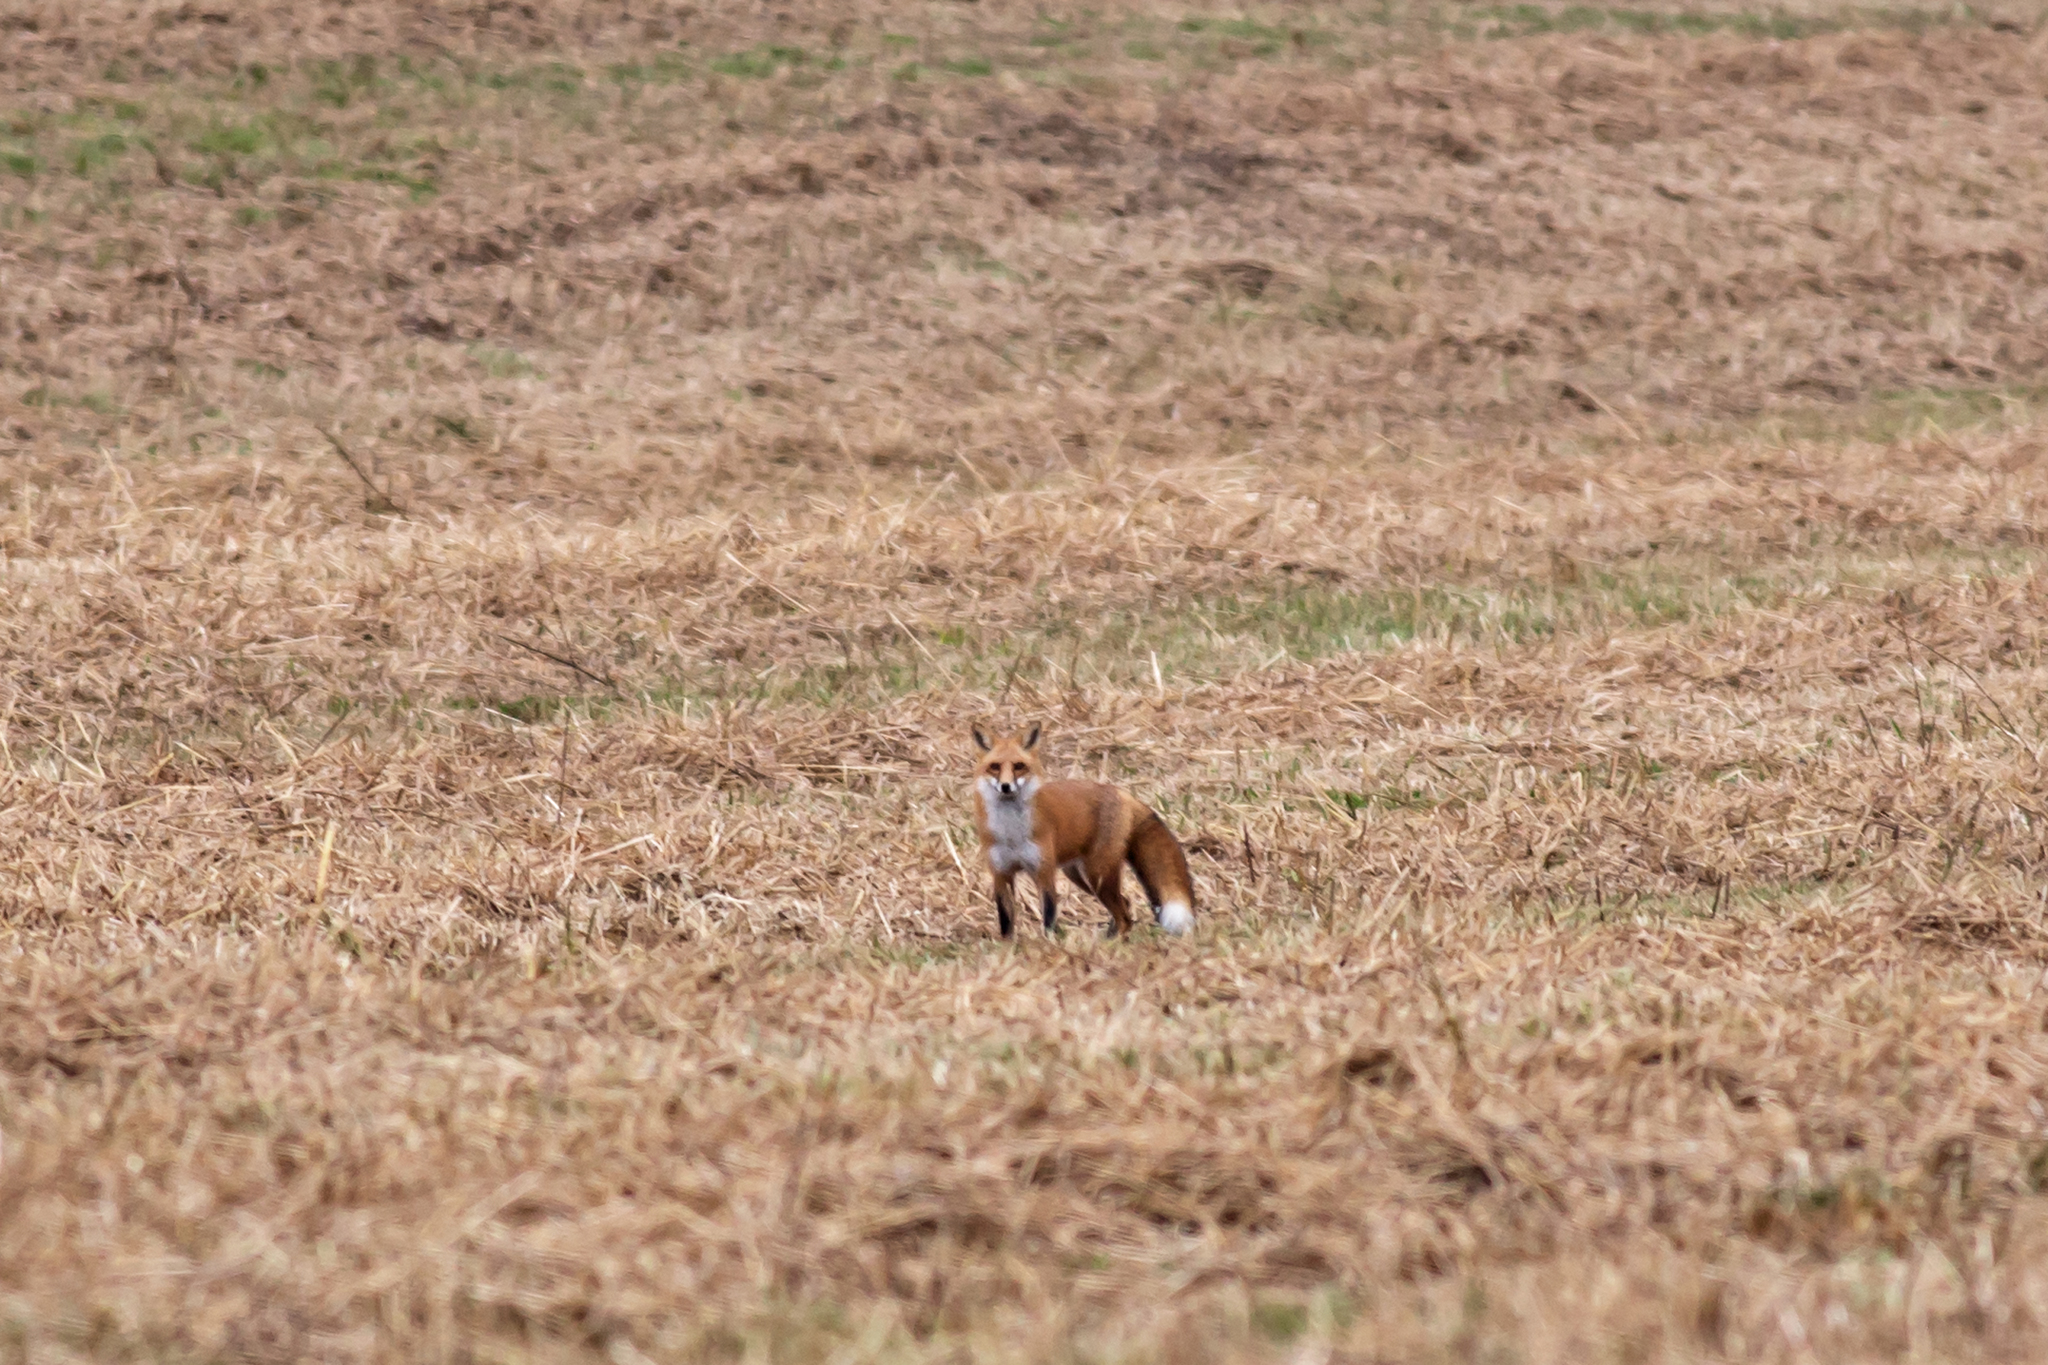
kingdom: Animalia
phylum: Chordata
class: Mammalia
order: Carnivora
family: Canidae
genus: Vulpes
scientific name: Vulpes vulpes
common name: Red fox
